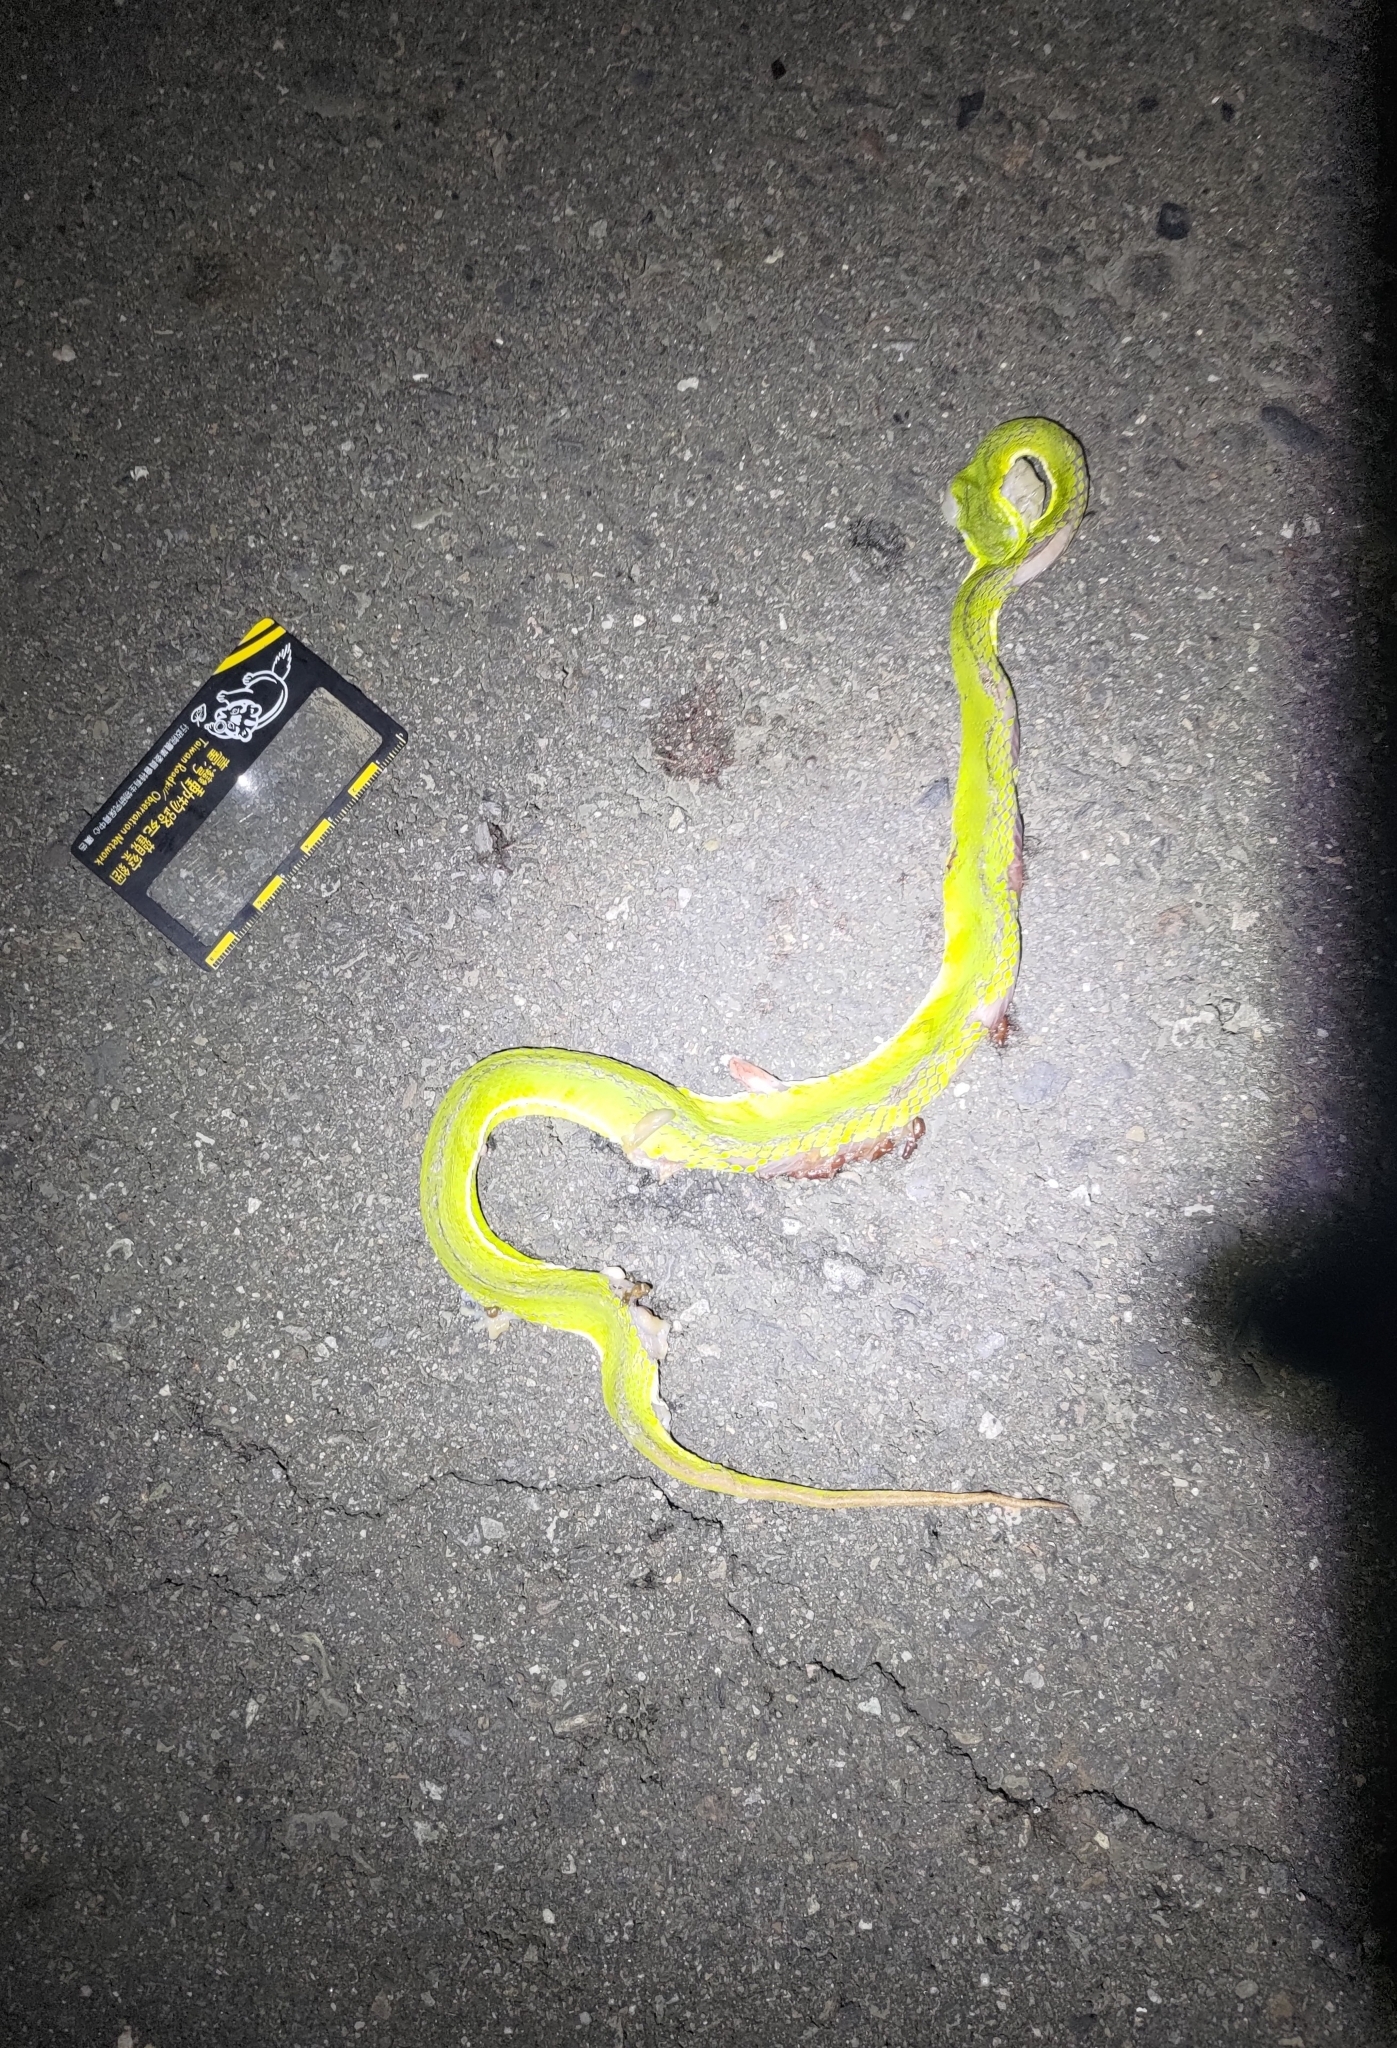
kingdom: Animalia
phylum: Chordata
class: Squamata
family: Viperidae
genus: Trimeresurus
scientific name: Trimeresurus stejnegeri
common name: Chen’s bamboo pit viper
